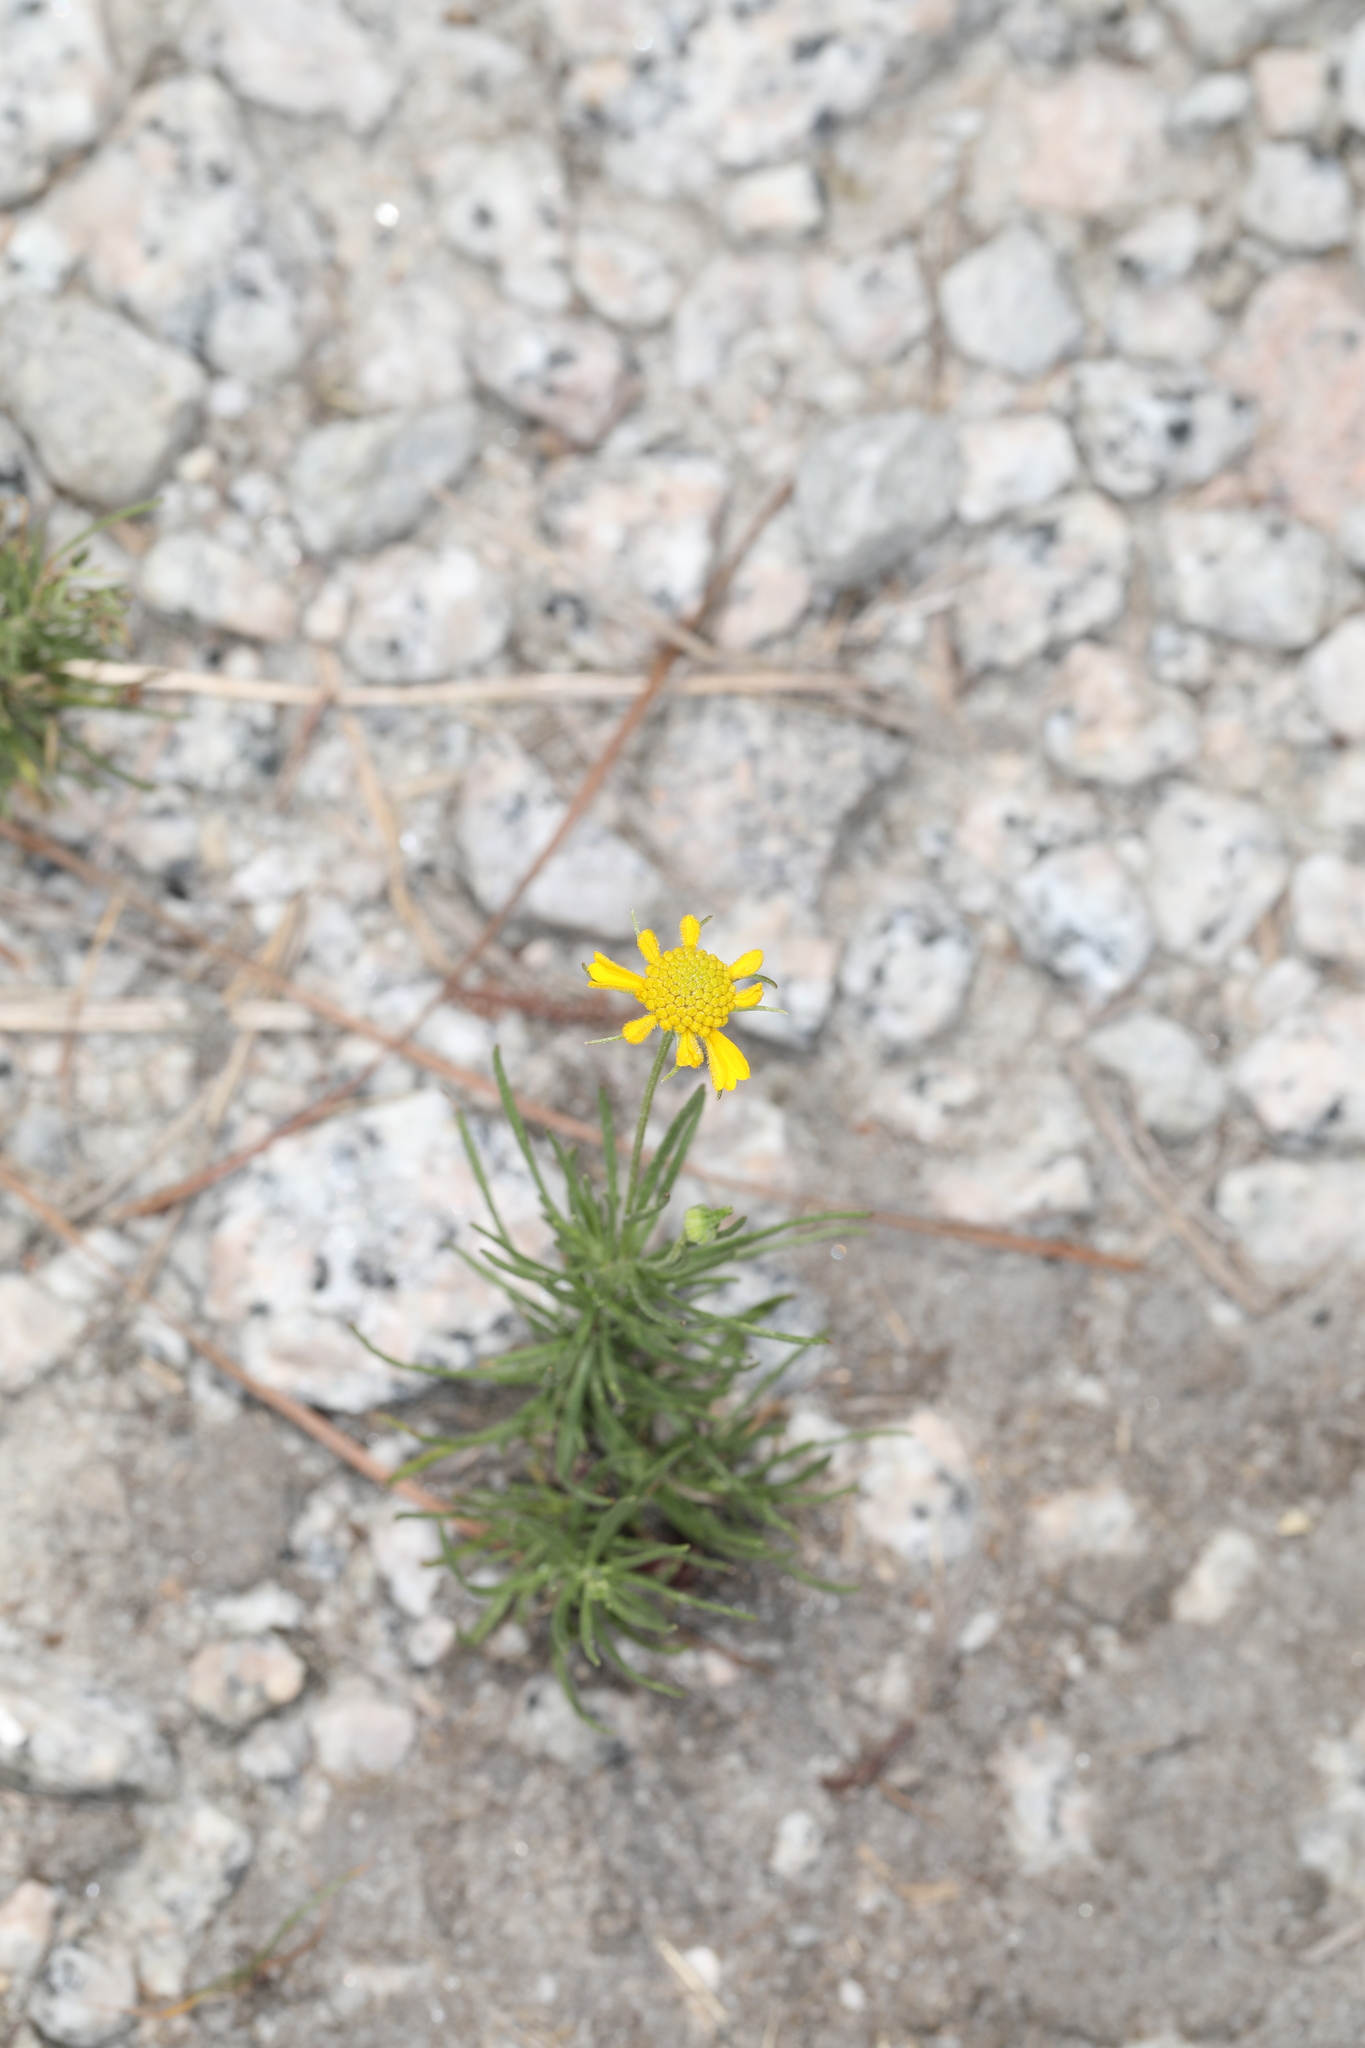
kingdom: Plantae
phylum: Tracheophyta
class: Magnoliopsida
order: Asterales
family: Asteraceae
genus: Helenium
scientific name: Helenium amarum
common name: Bitter sneezeweed
